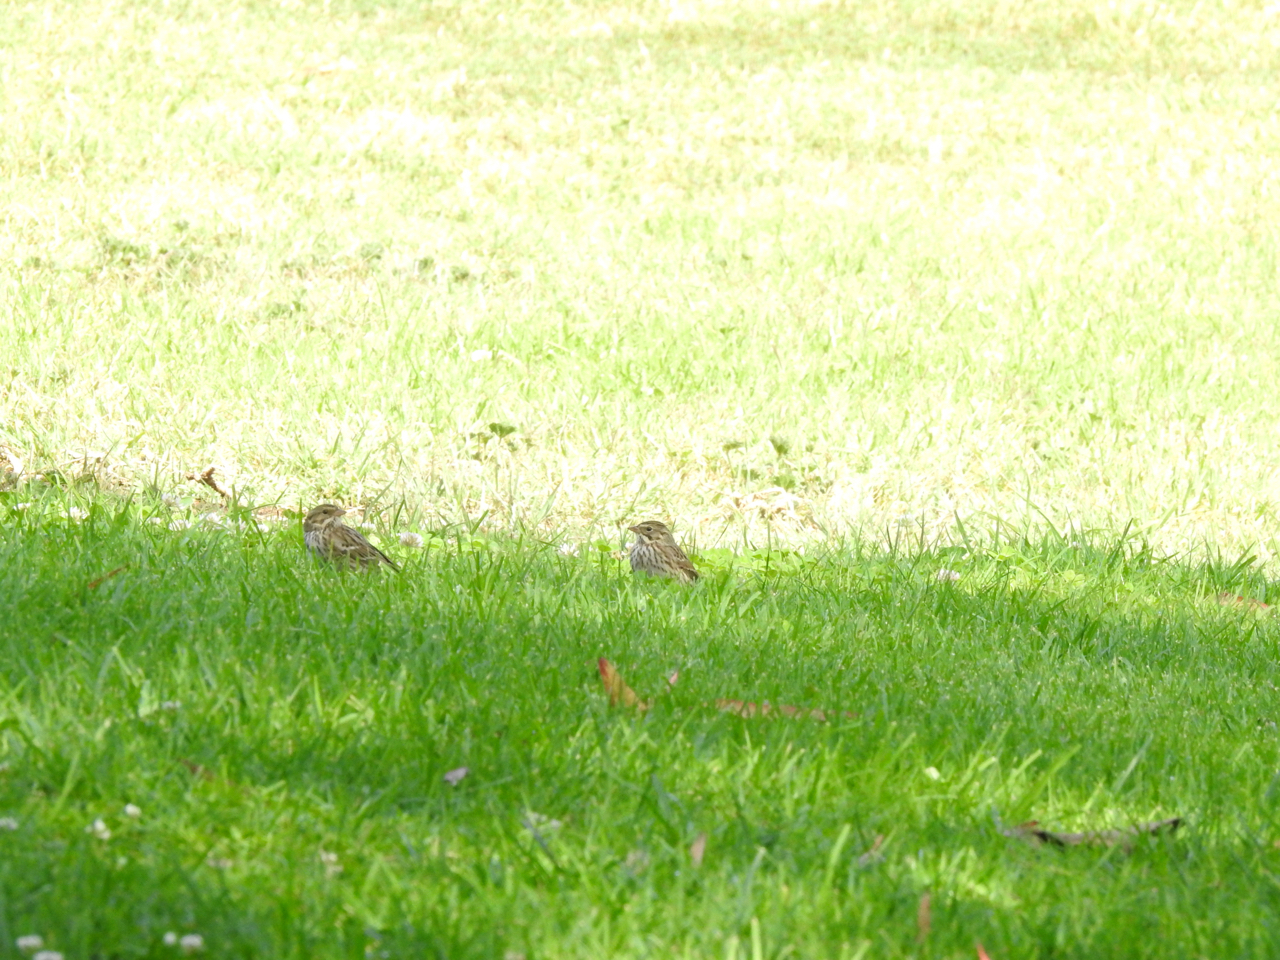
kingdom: Animalia
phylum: Chordata
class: Aves
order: Passeriformes
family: Passerellidae
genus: Passerculus
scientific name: Passerculus sandwichensis
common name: Savannah sparrow
